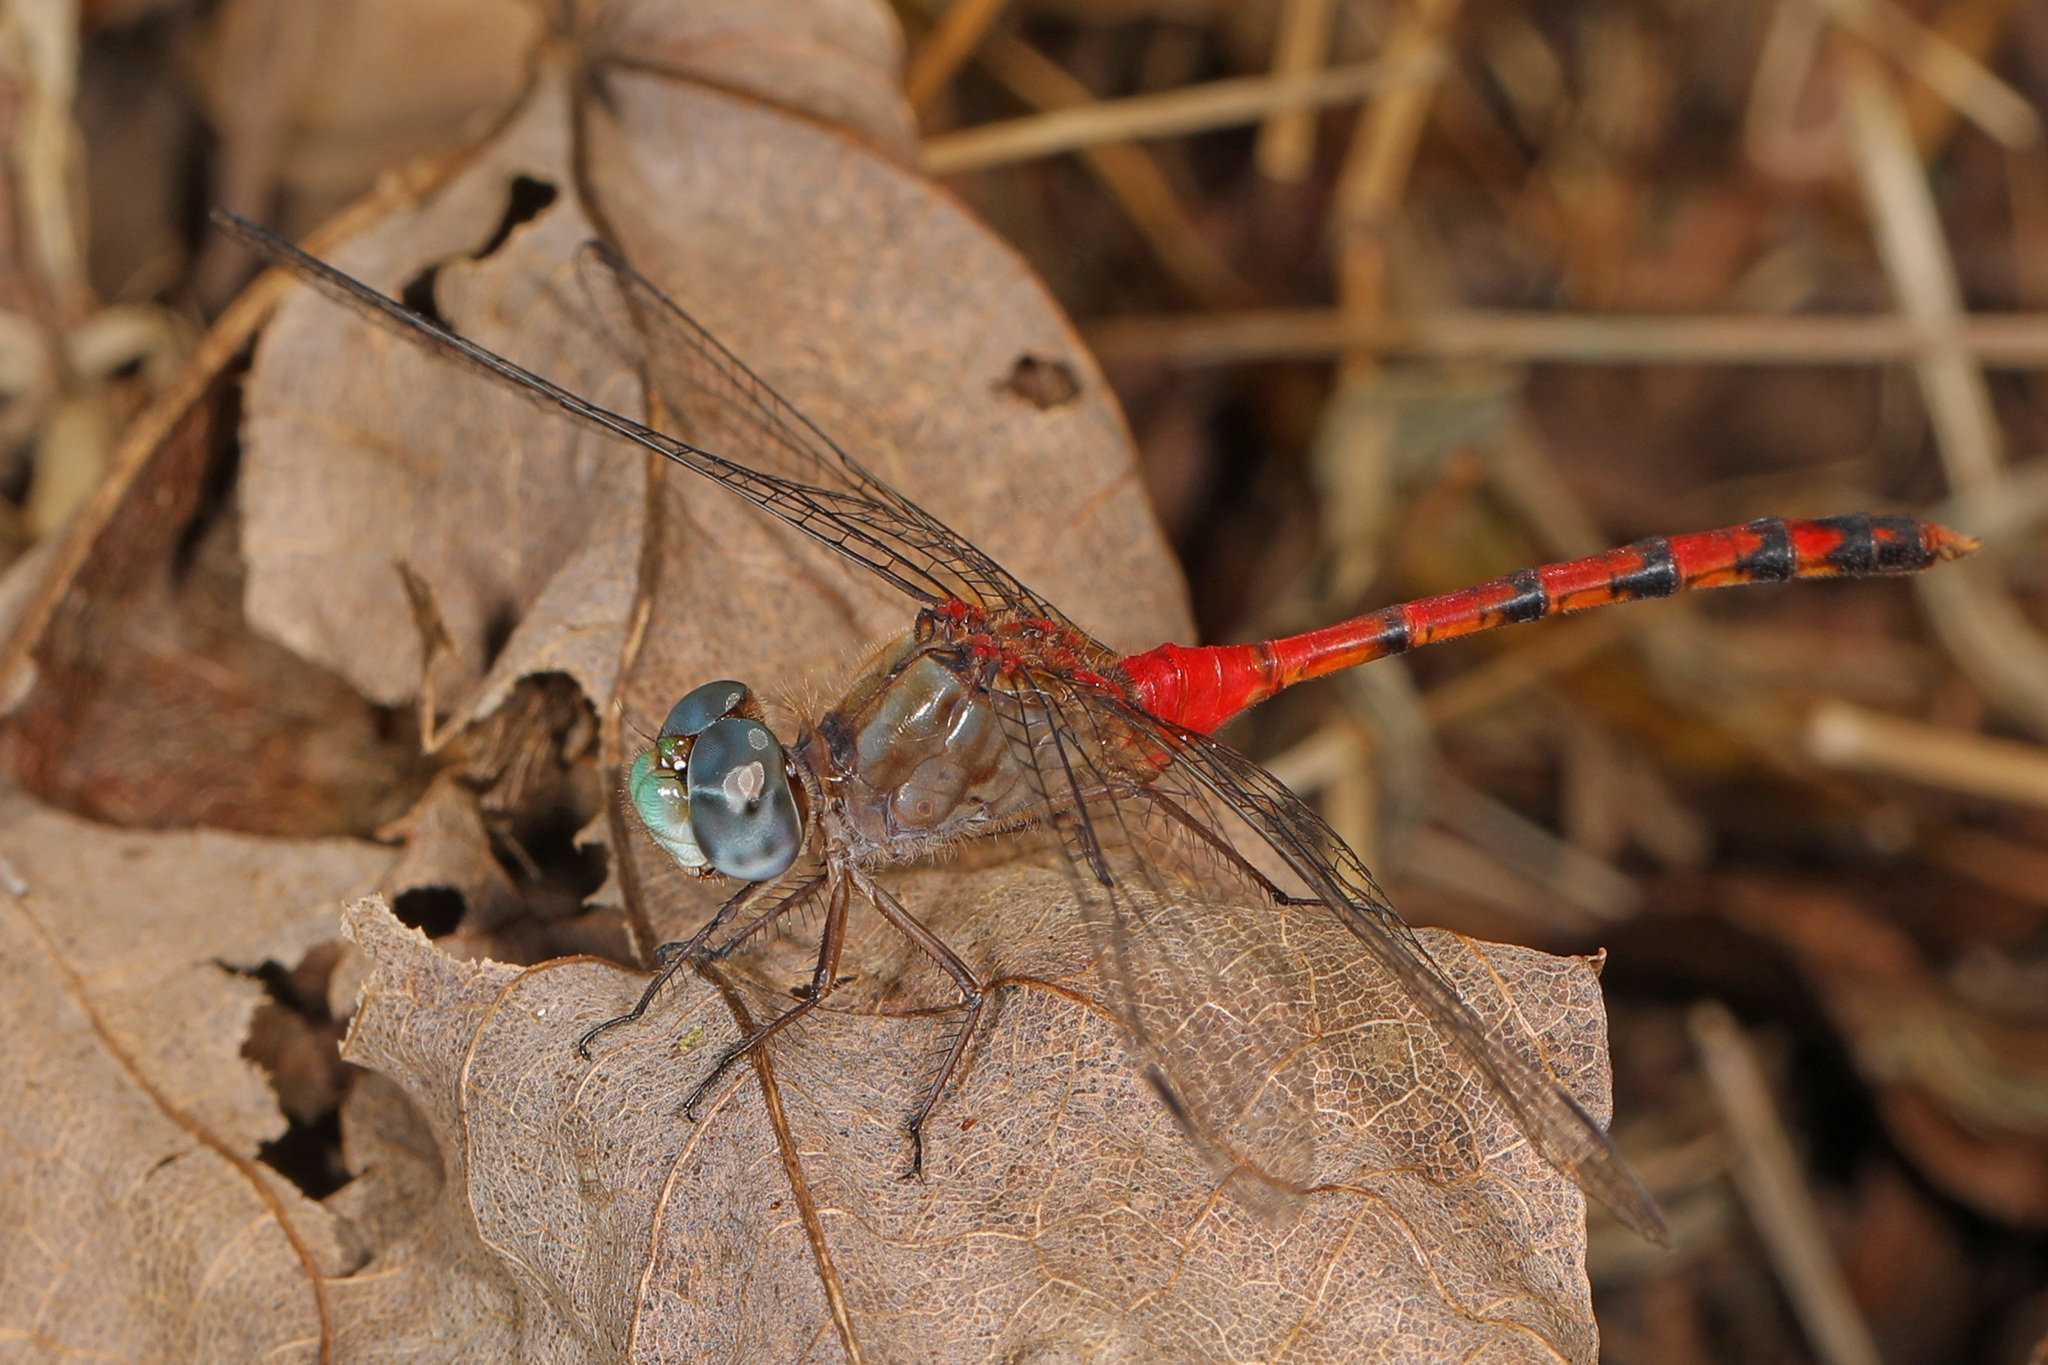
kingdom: Animalia
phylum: Arthropoda
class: Insecta
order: Odonata
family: Libellulidae
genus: Sympetrum
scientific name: Sympetrum ambiguum
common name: Blue-faced meadowhawk
